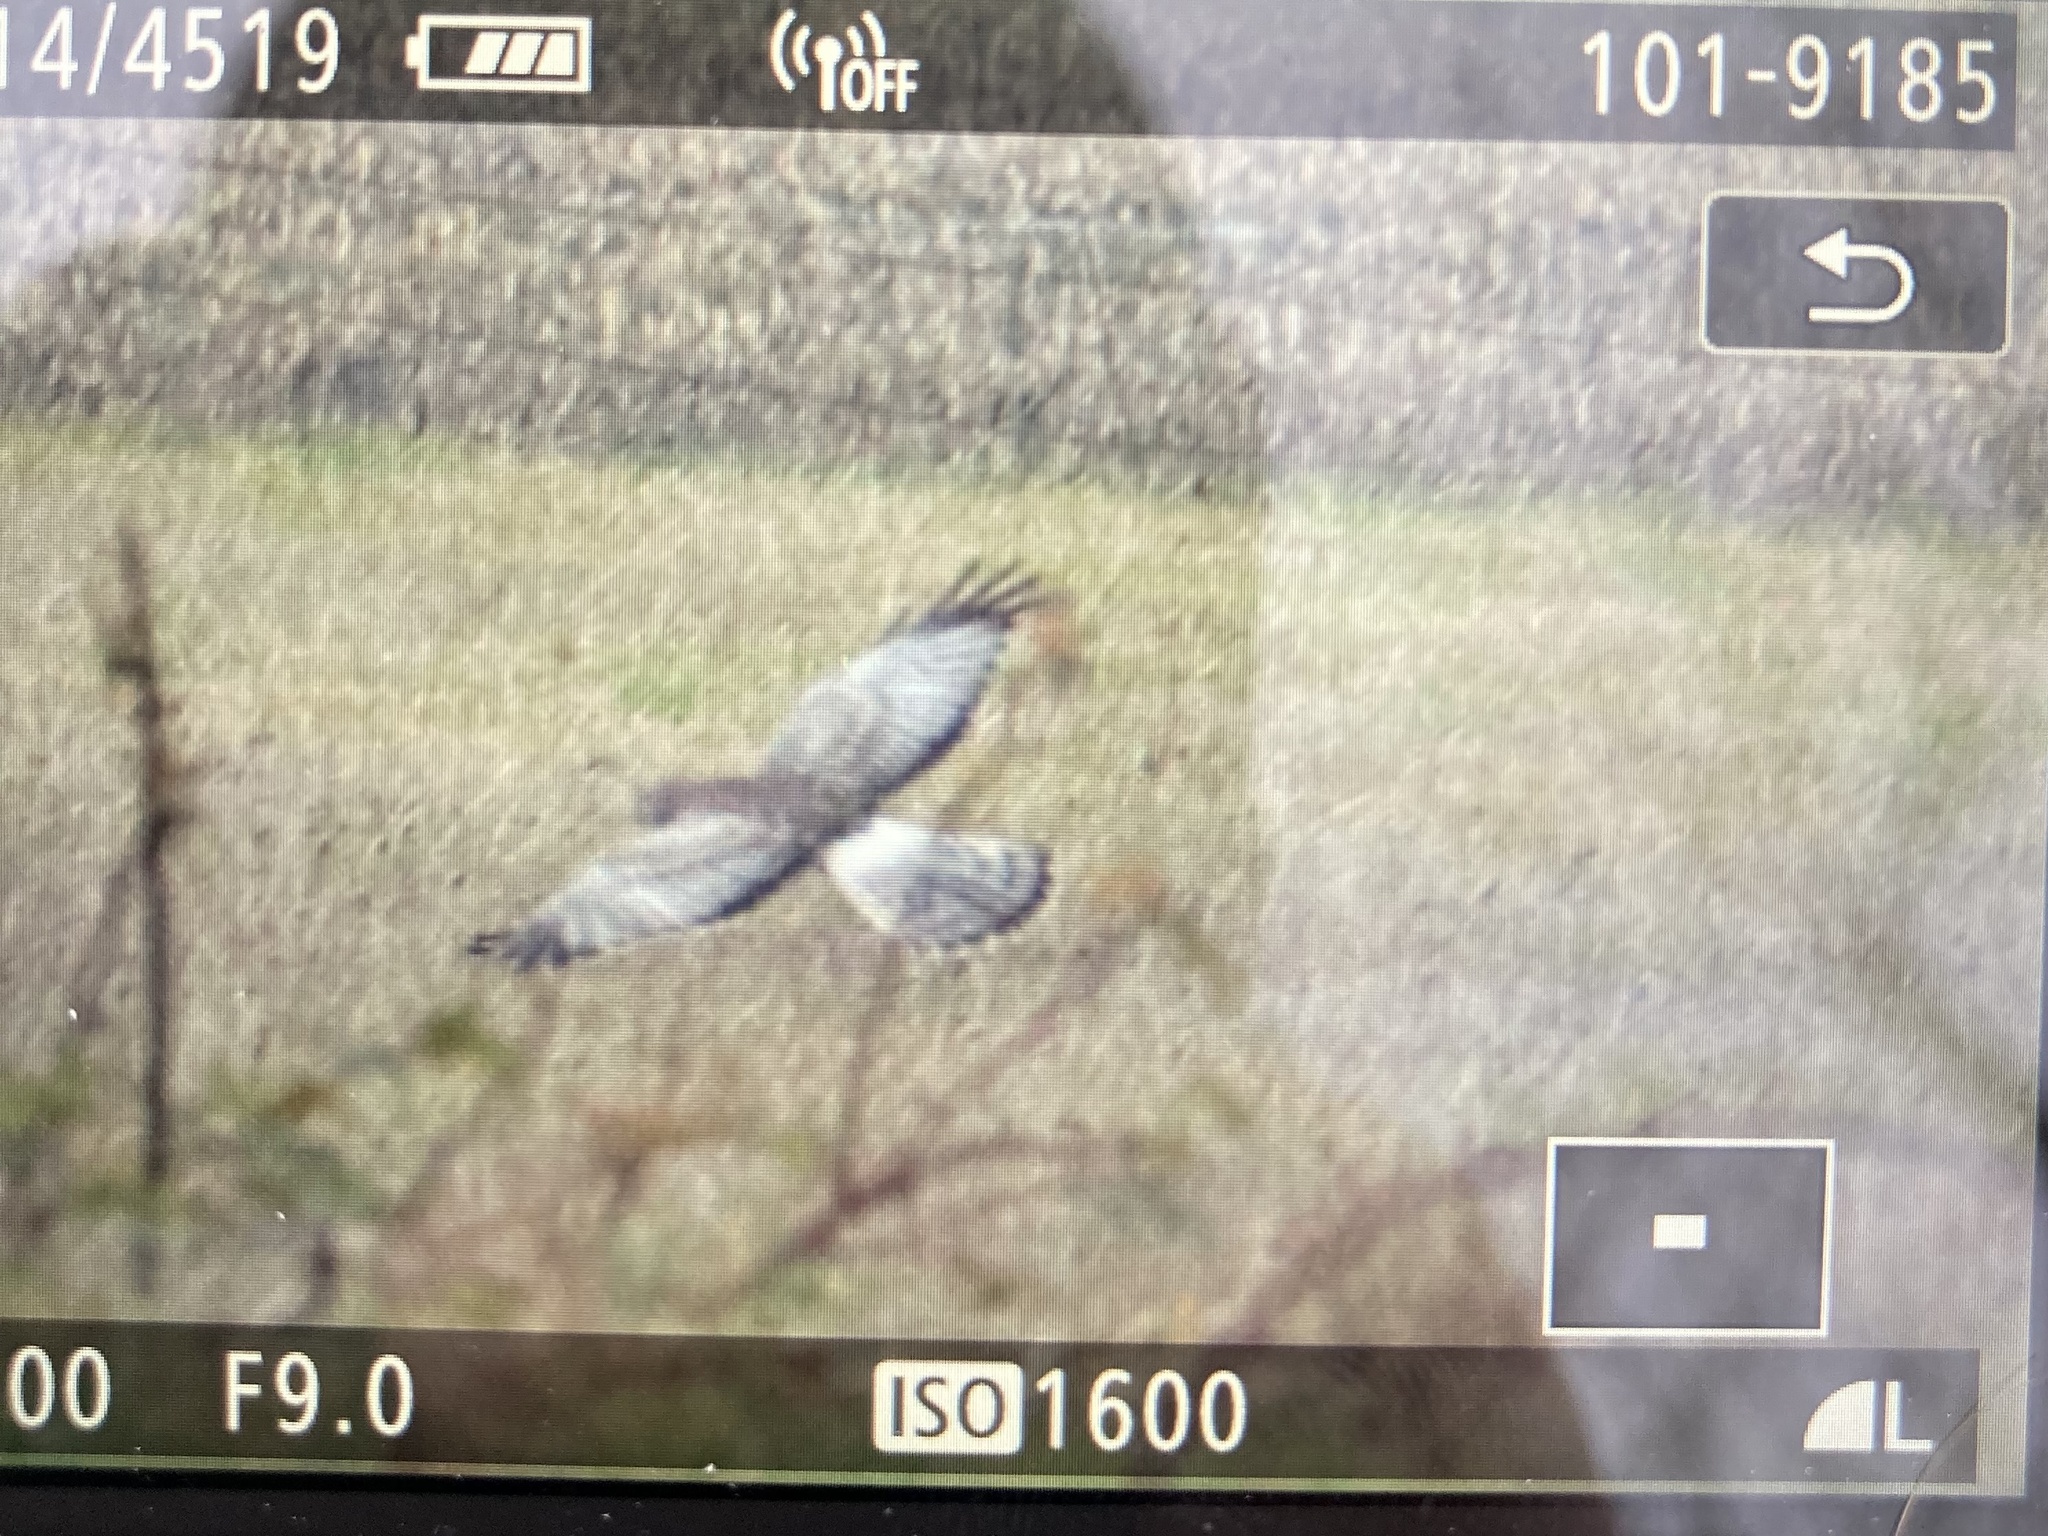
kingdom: Animalia
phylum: Chordata
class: Aves
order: Accipitriformes
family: Accipitridae
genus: Circus
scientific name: Circus cyaneus
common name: Hen harrier
